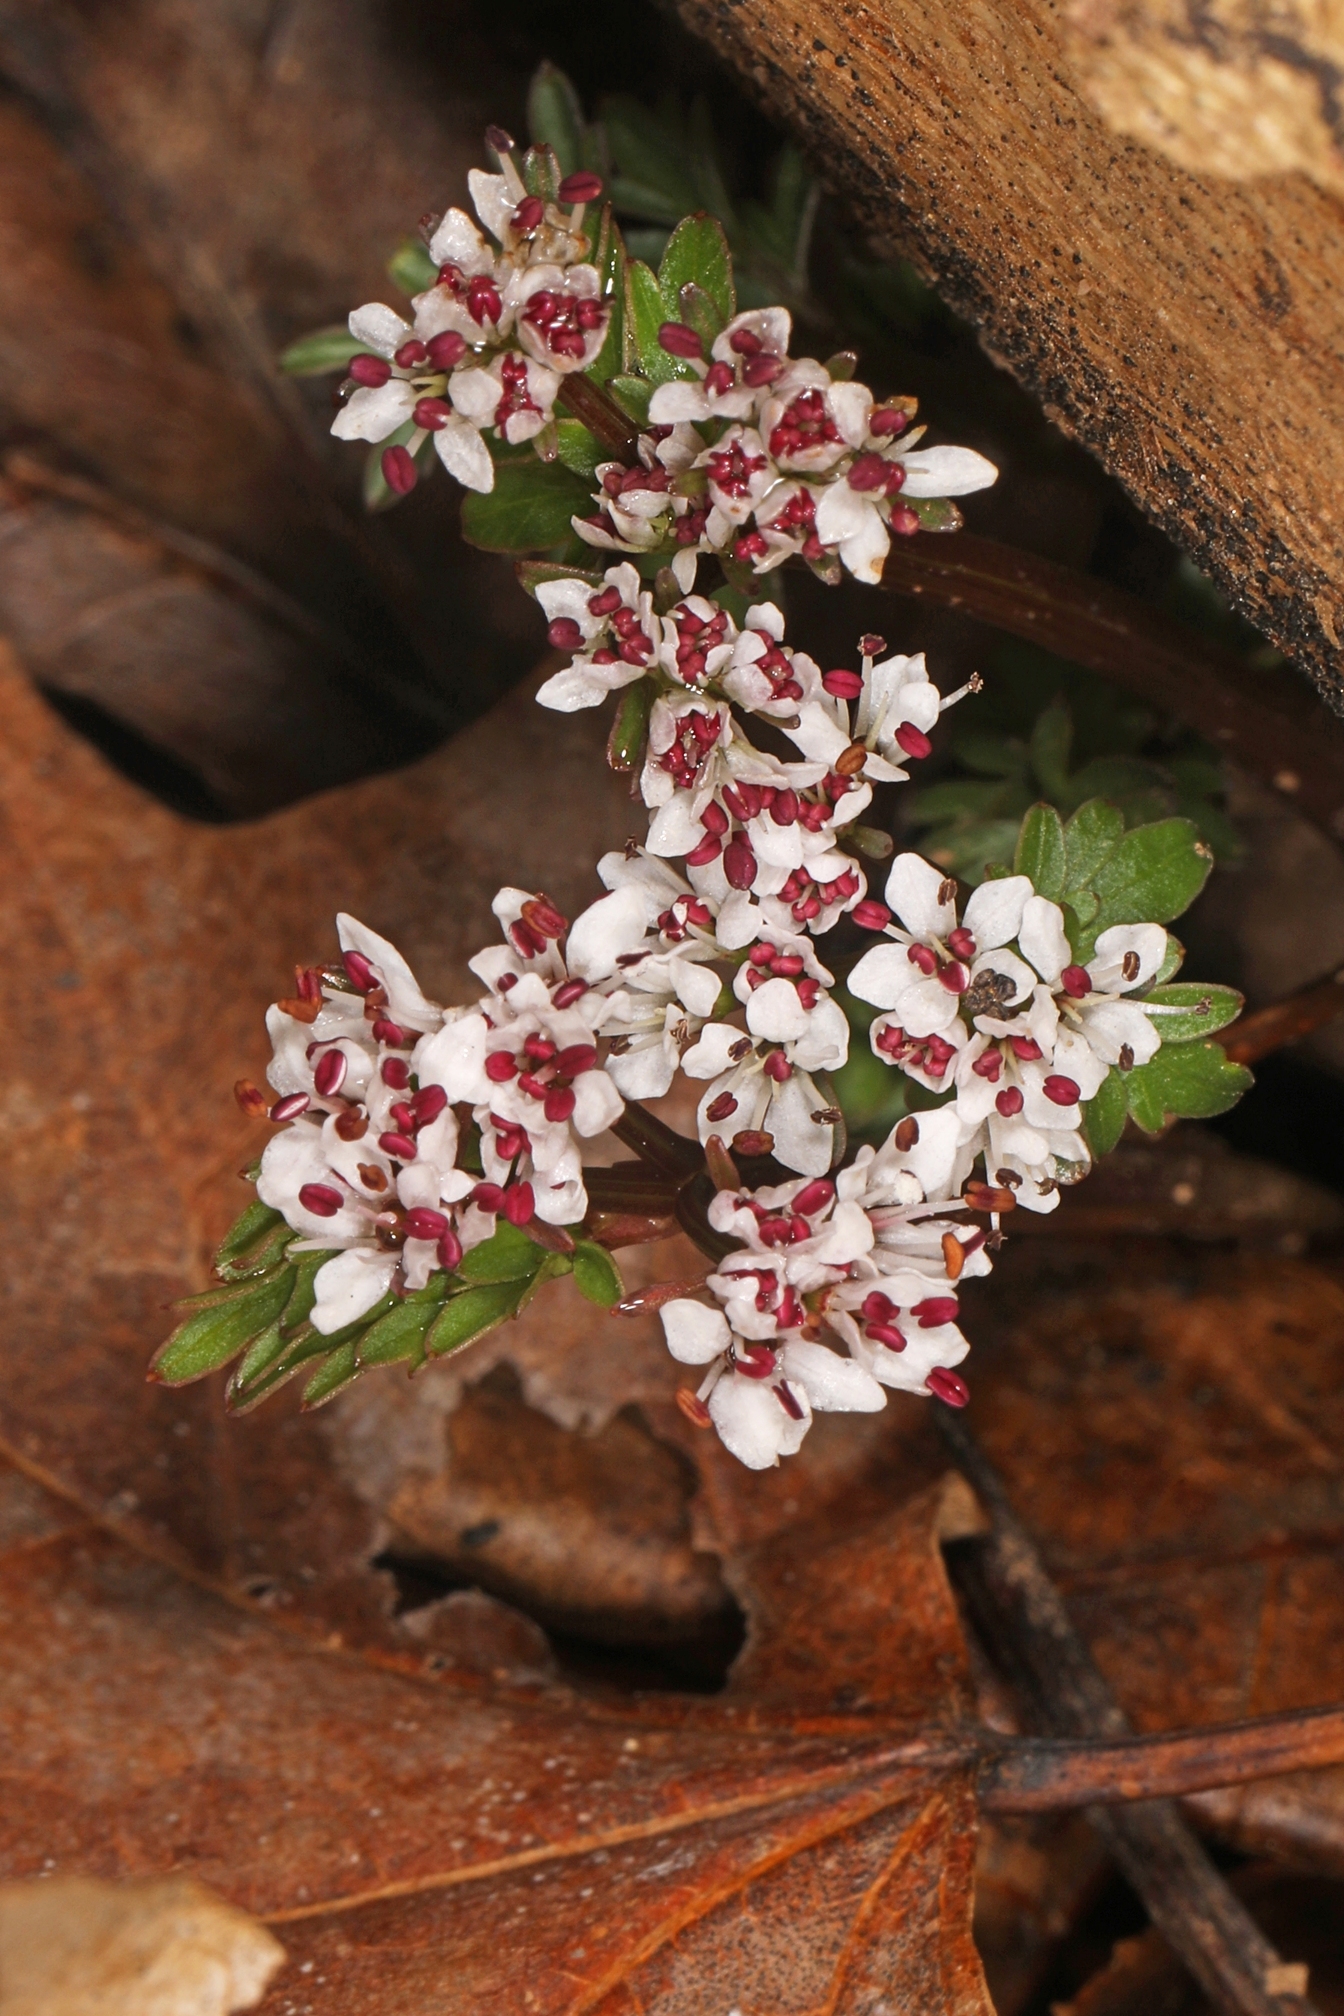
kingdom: Plantae
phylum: Tracheophyta
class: Magnoliopsida
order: Apiales
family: Apiaceae
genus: Erigenia
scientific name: Erigenia bulbosa
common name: Pepper-and-salt
